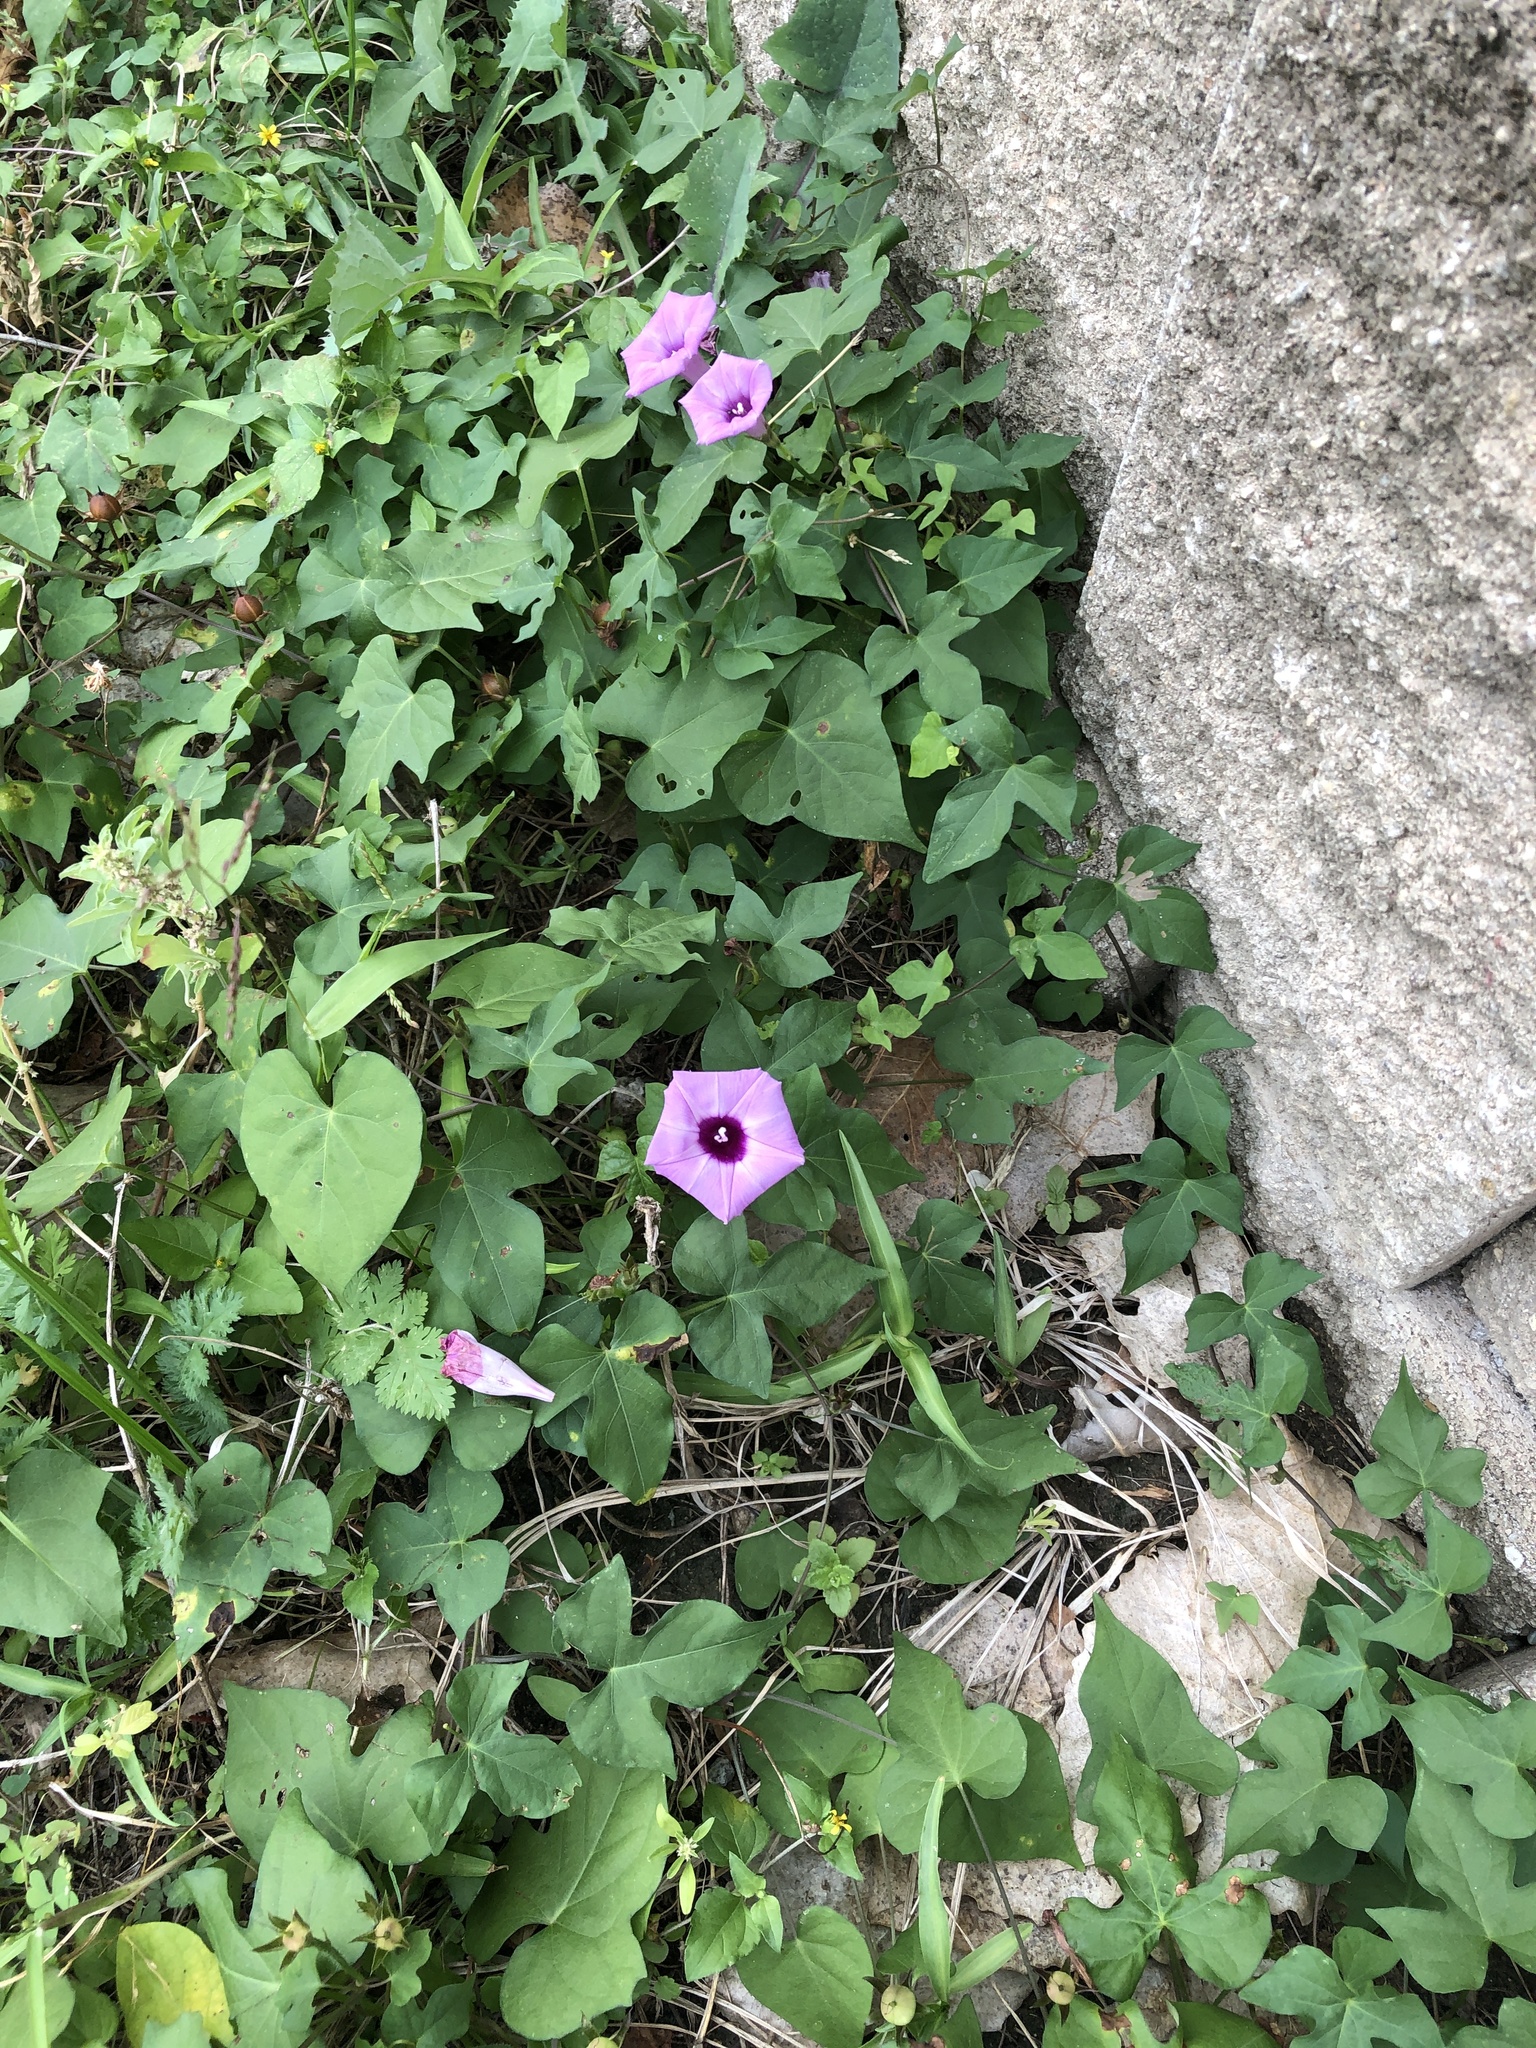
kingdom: Plantae
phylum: Tracheophyta
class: Magnoliopsida
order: Solanales
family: Convolvulaceae
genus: Ipomoea
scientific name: Ipomoea cordatotriloba
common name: Cotton morning glory
